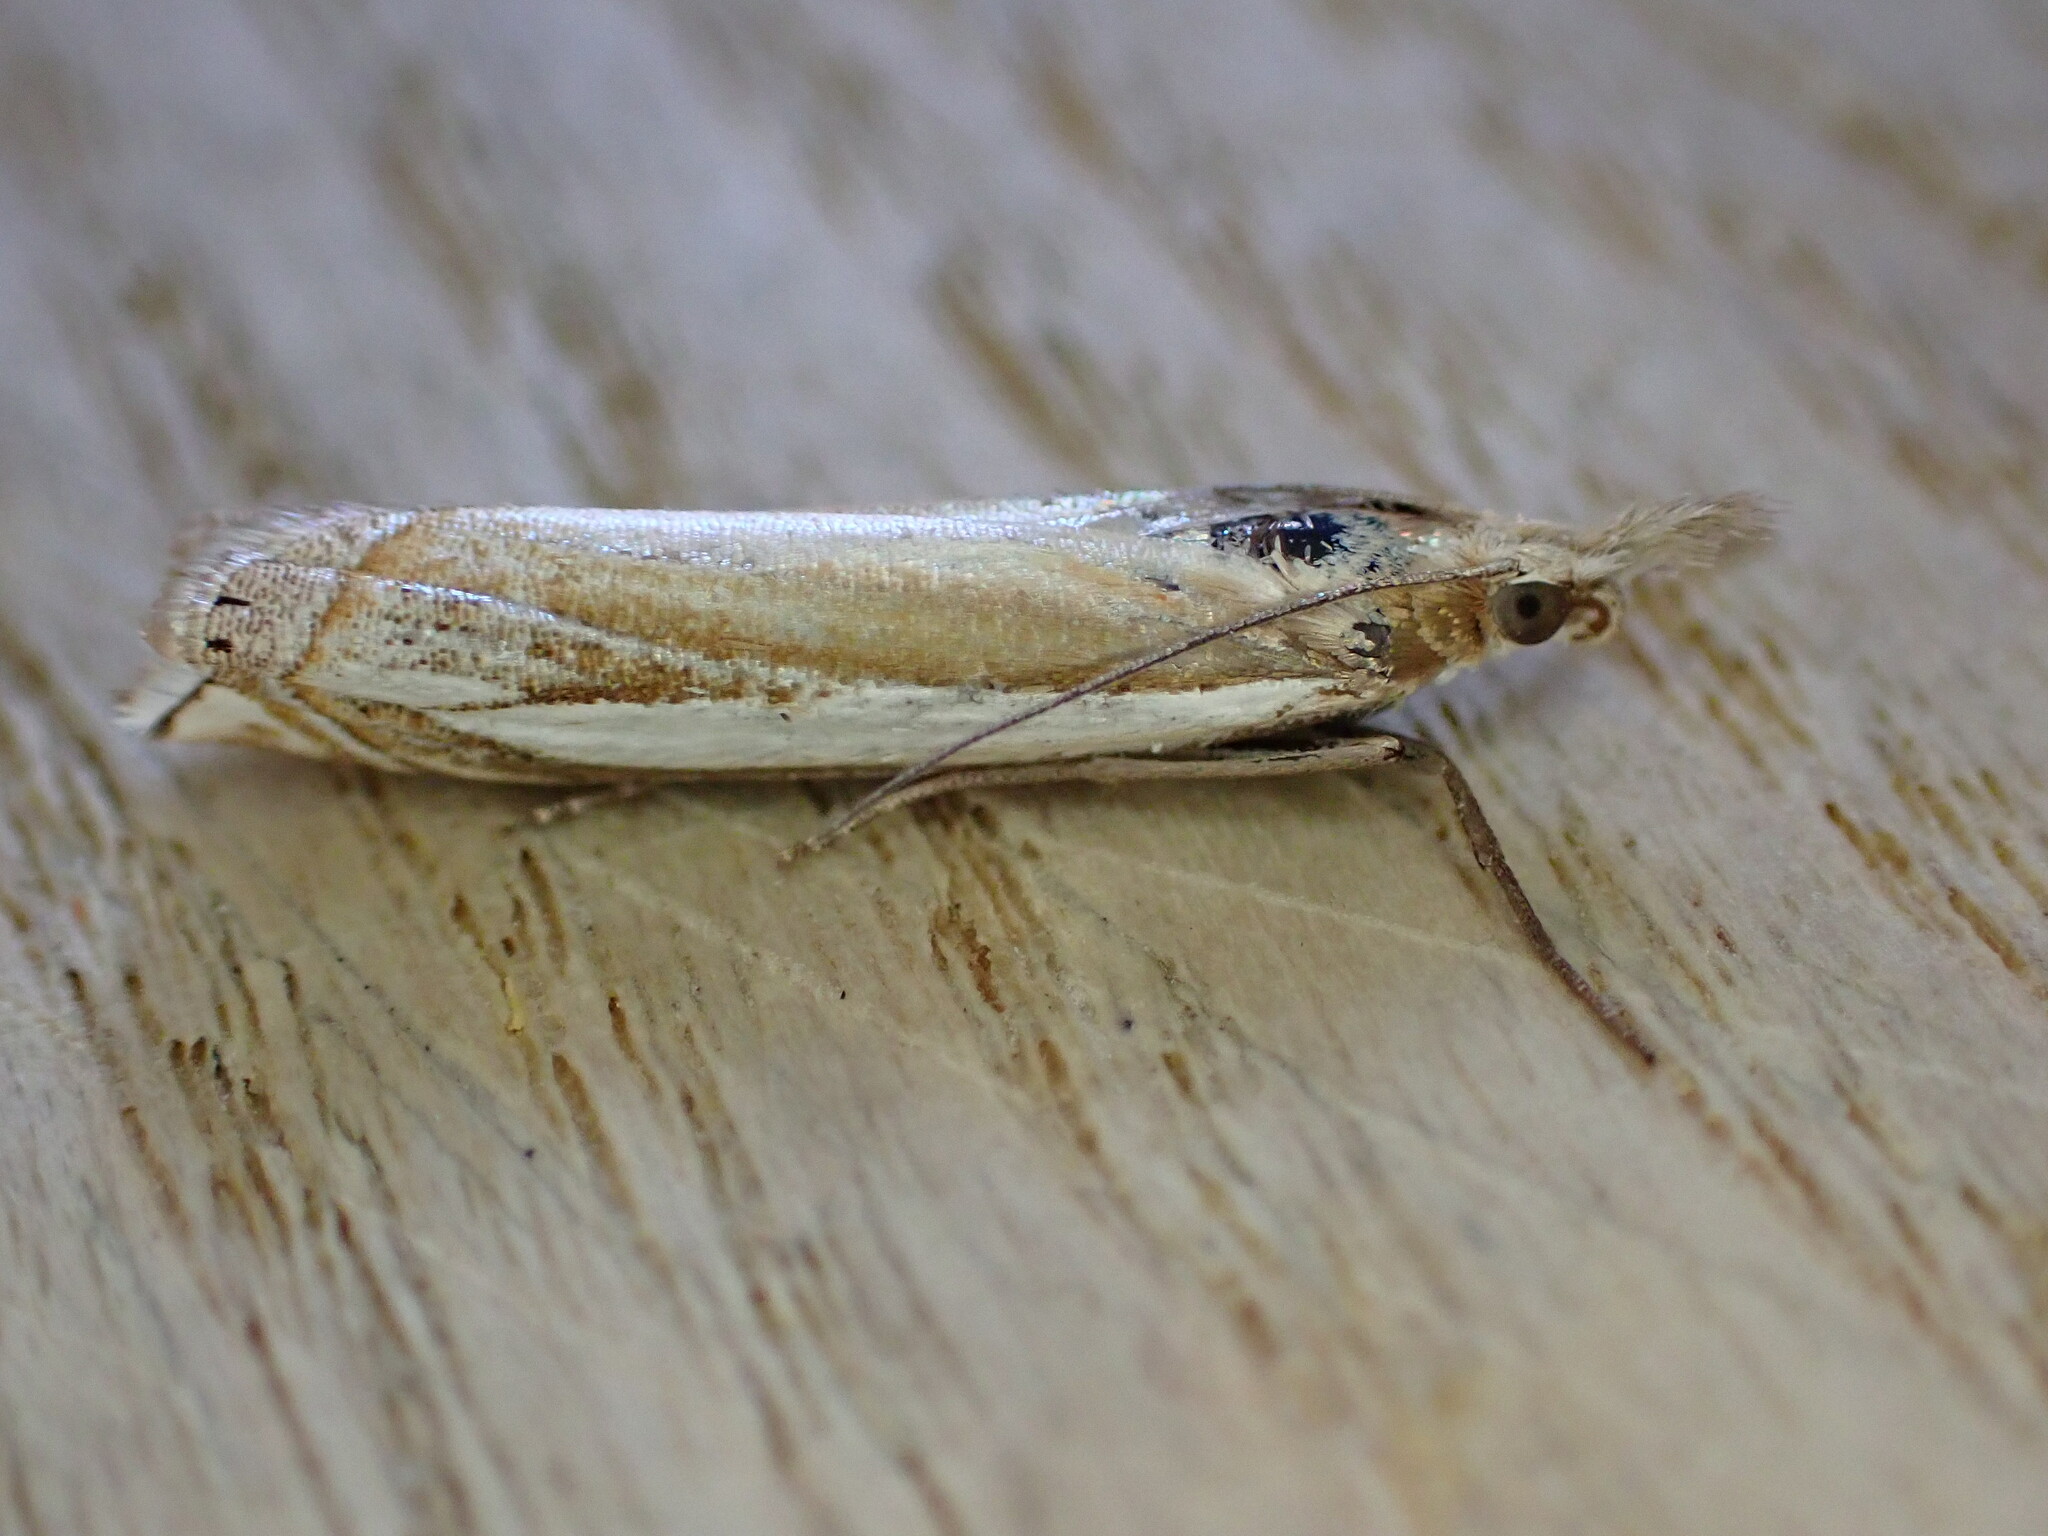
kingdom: Animalia
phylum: Arthropoda
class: Insecta
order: Lepidoptera
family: Crambidae
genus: Crambus
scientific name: Crambus pascuella
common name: Inlaid grass-veneer
